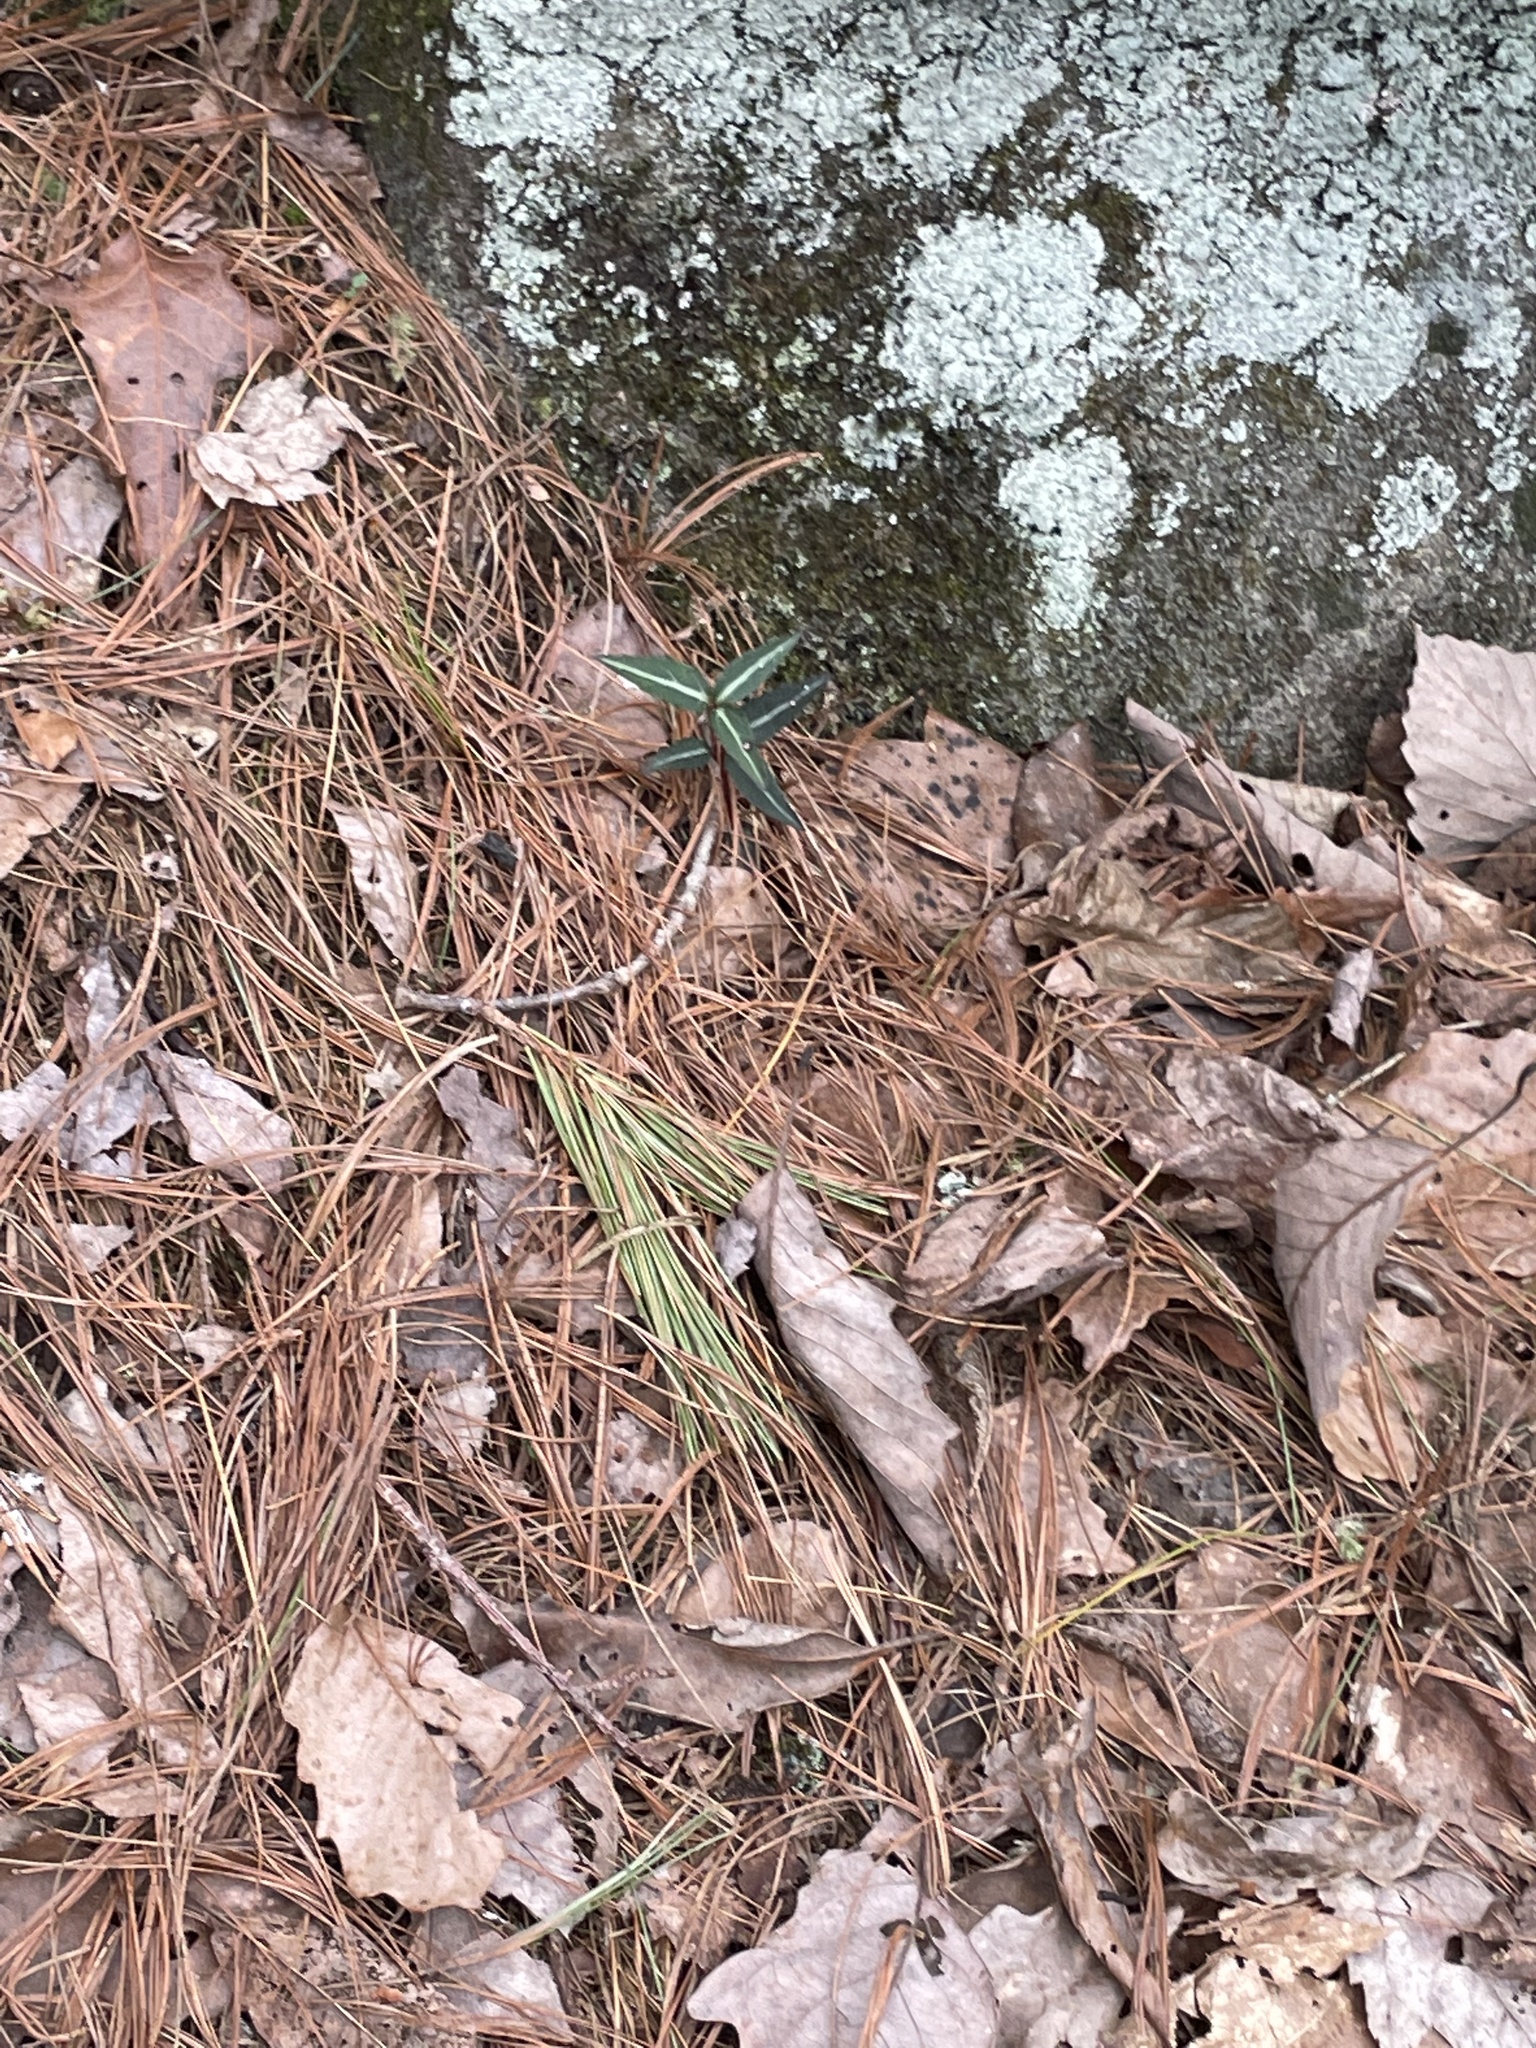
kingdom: Plantae
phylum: Tracheophyta
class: Magnoliopsida
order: Ericales
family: Ericaceae
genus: Chimaphila
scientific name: Chimaphila maculata
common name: Spotted pipsissewa
